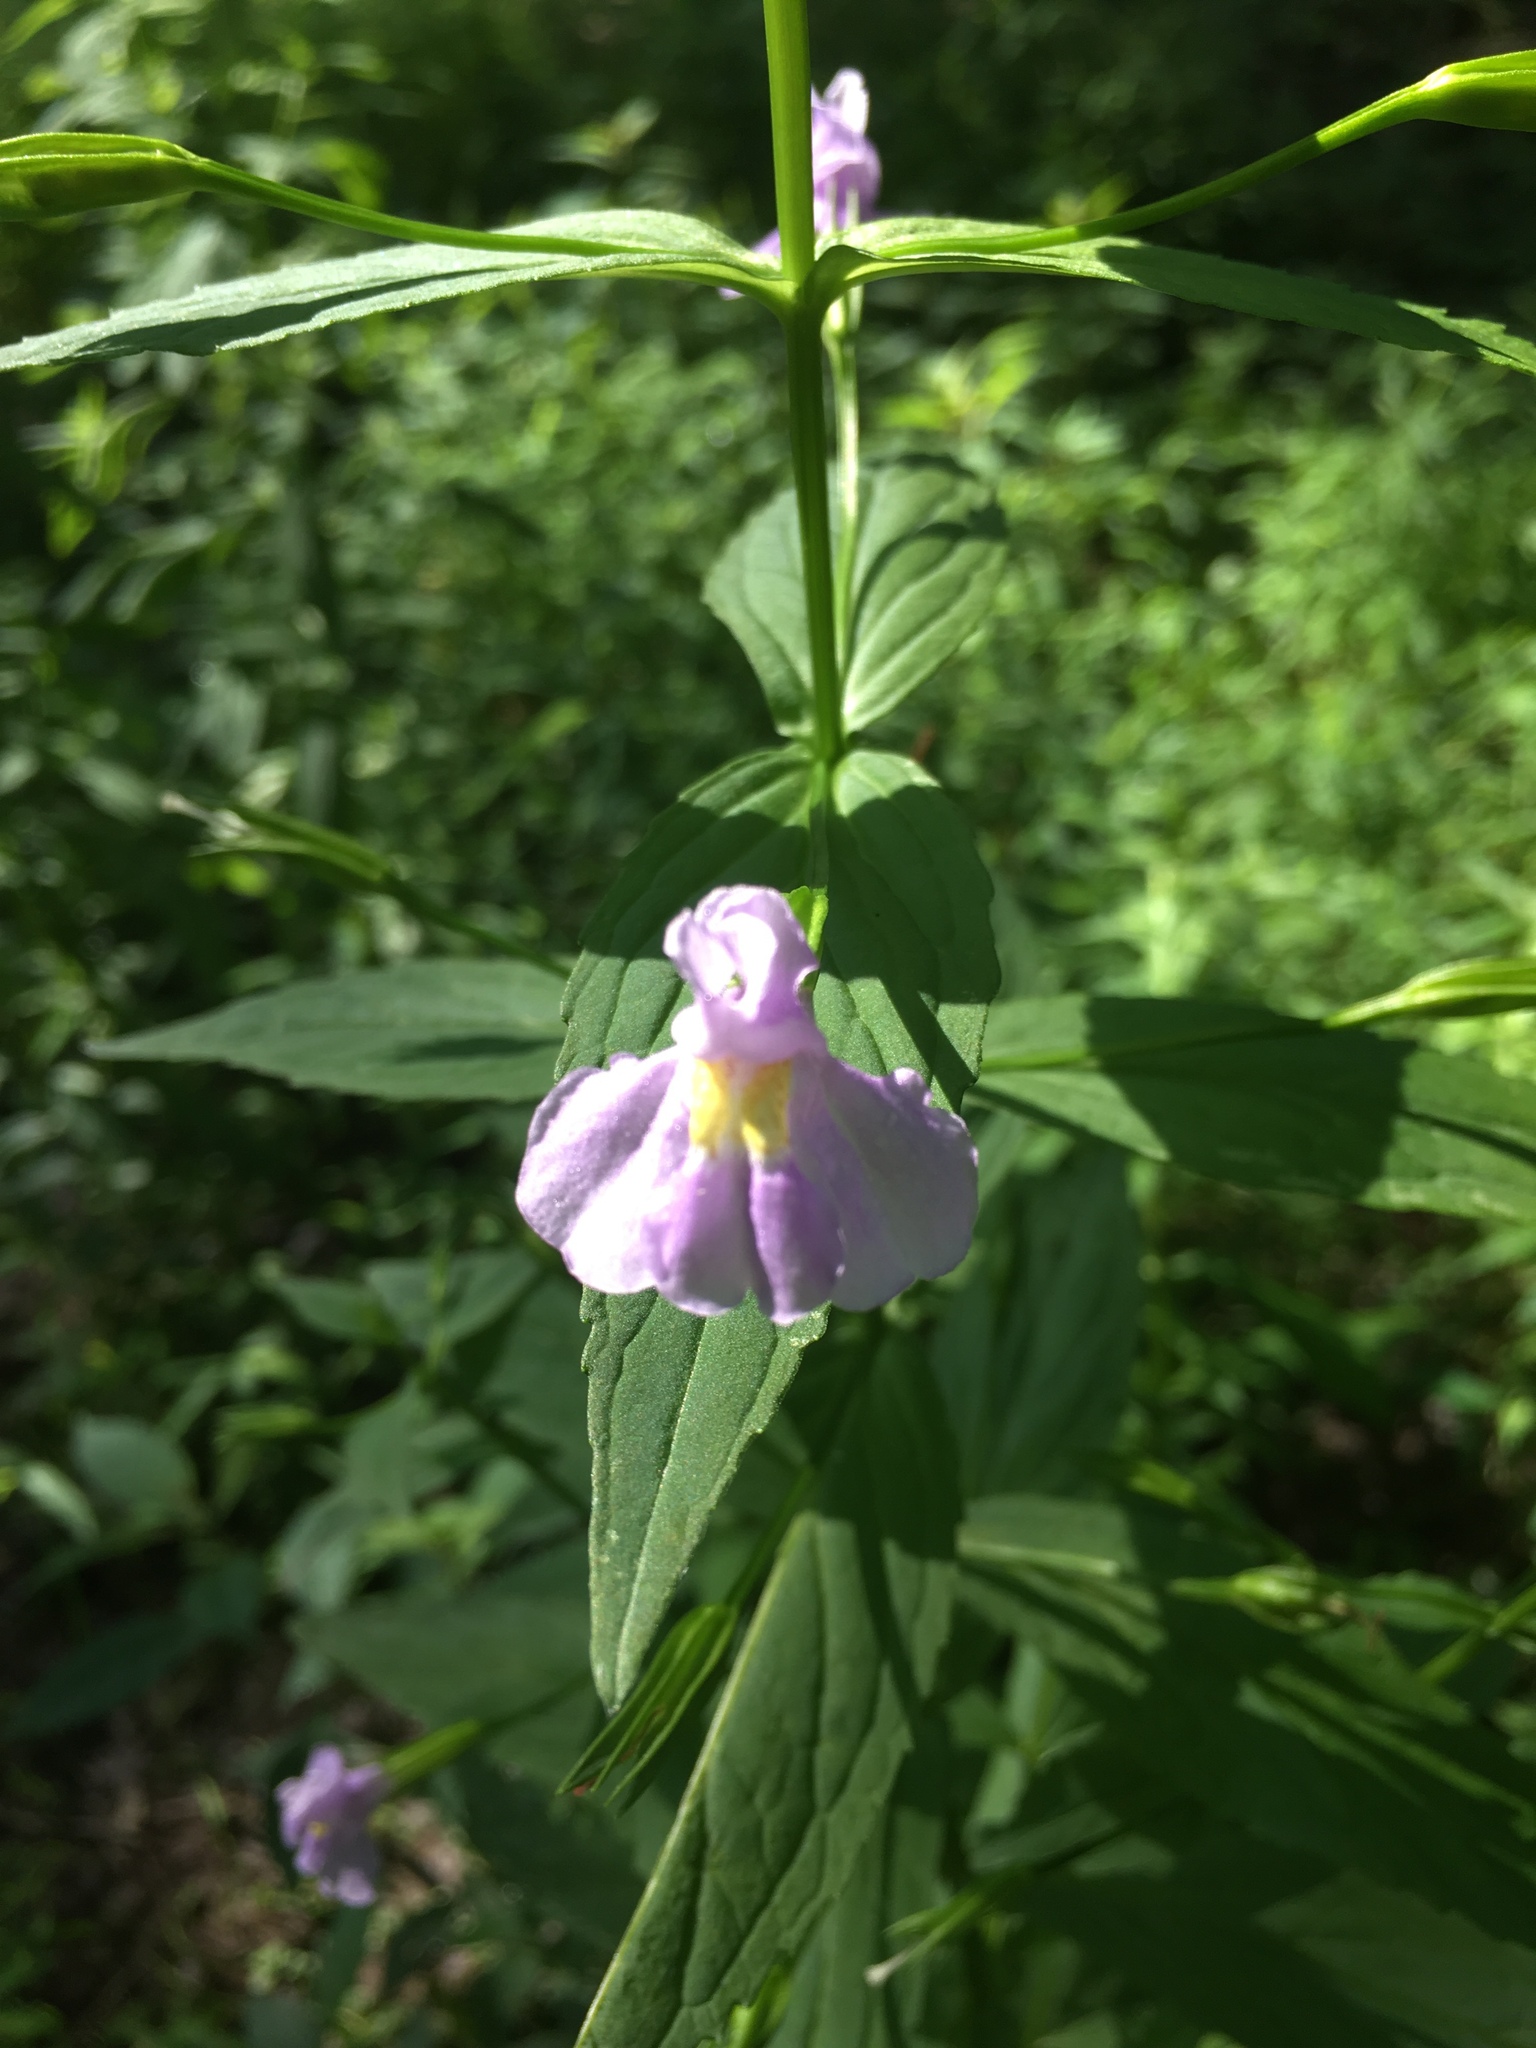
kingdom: Plantae
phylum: Tracheophyta
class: Magnoliopsida
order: Lamiales
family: Phrymaceae
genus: Mimulus
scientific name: Mimulus ringens
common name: Allegheny monkeyflower
